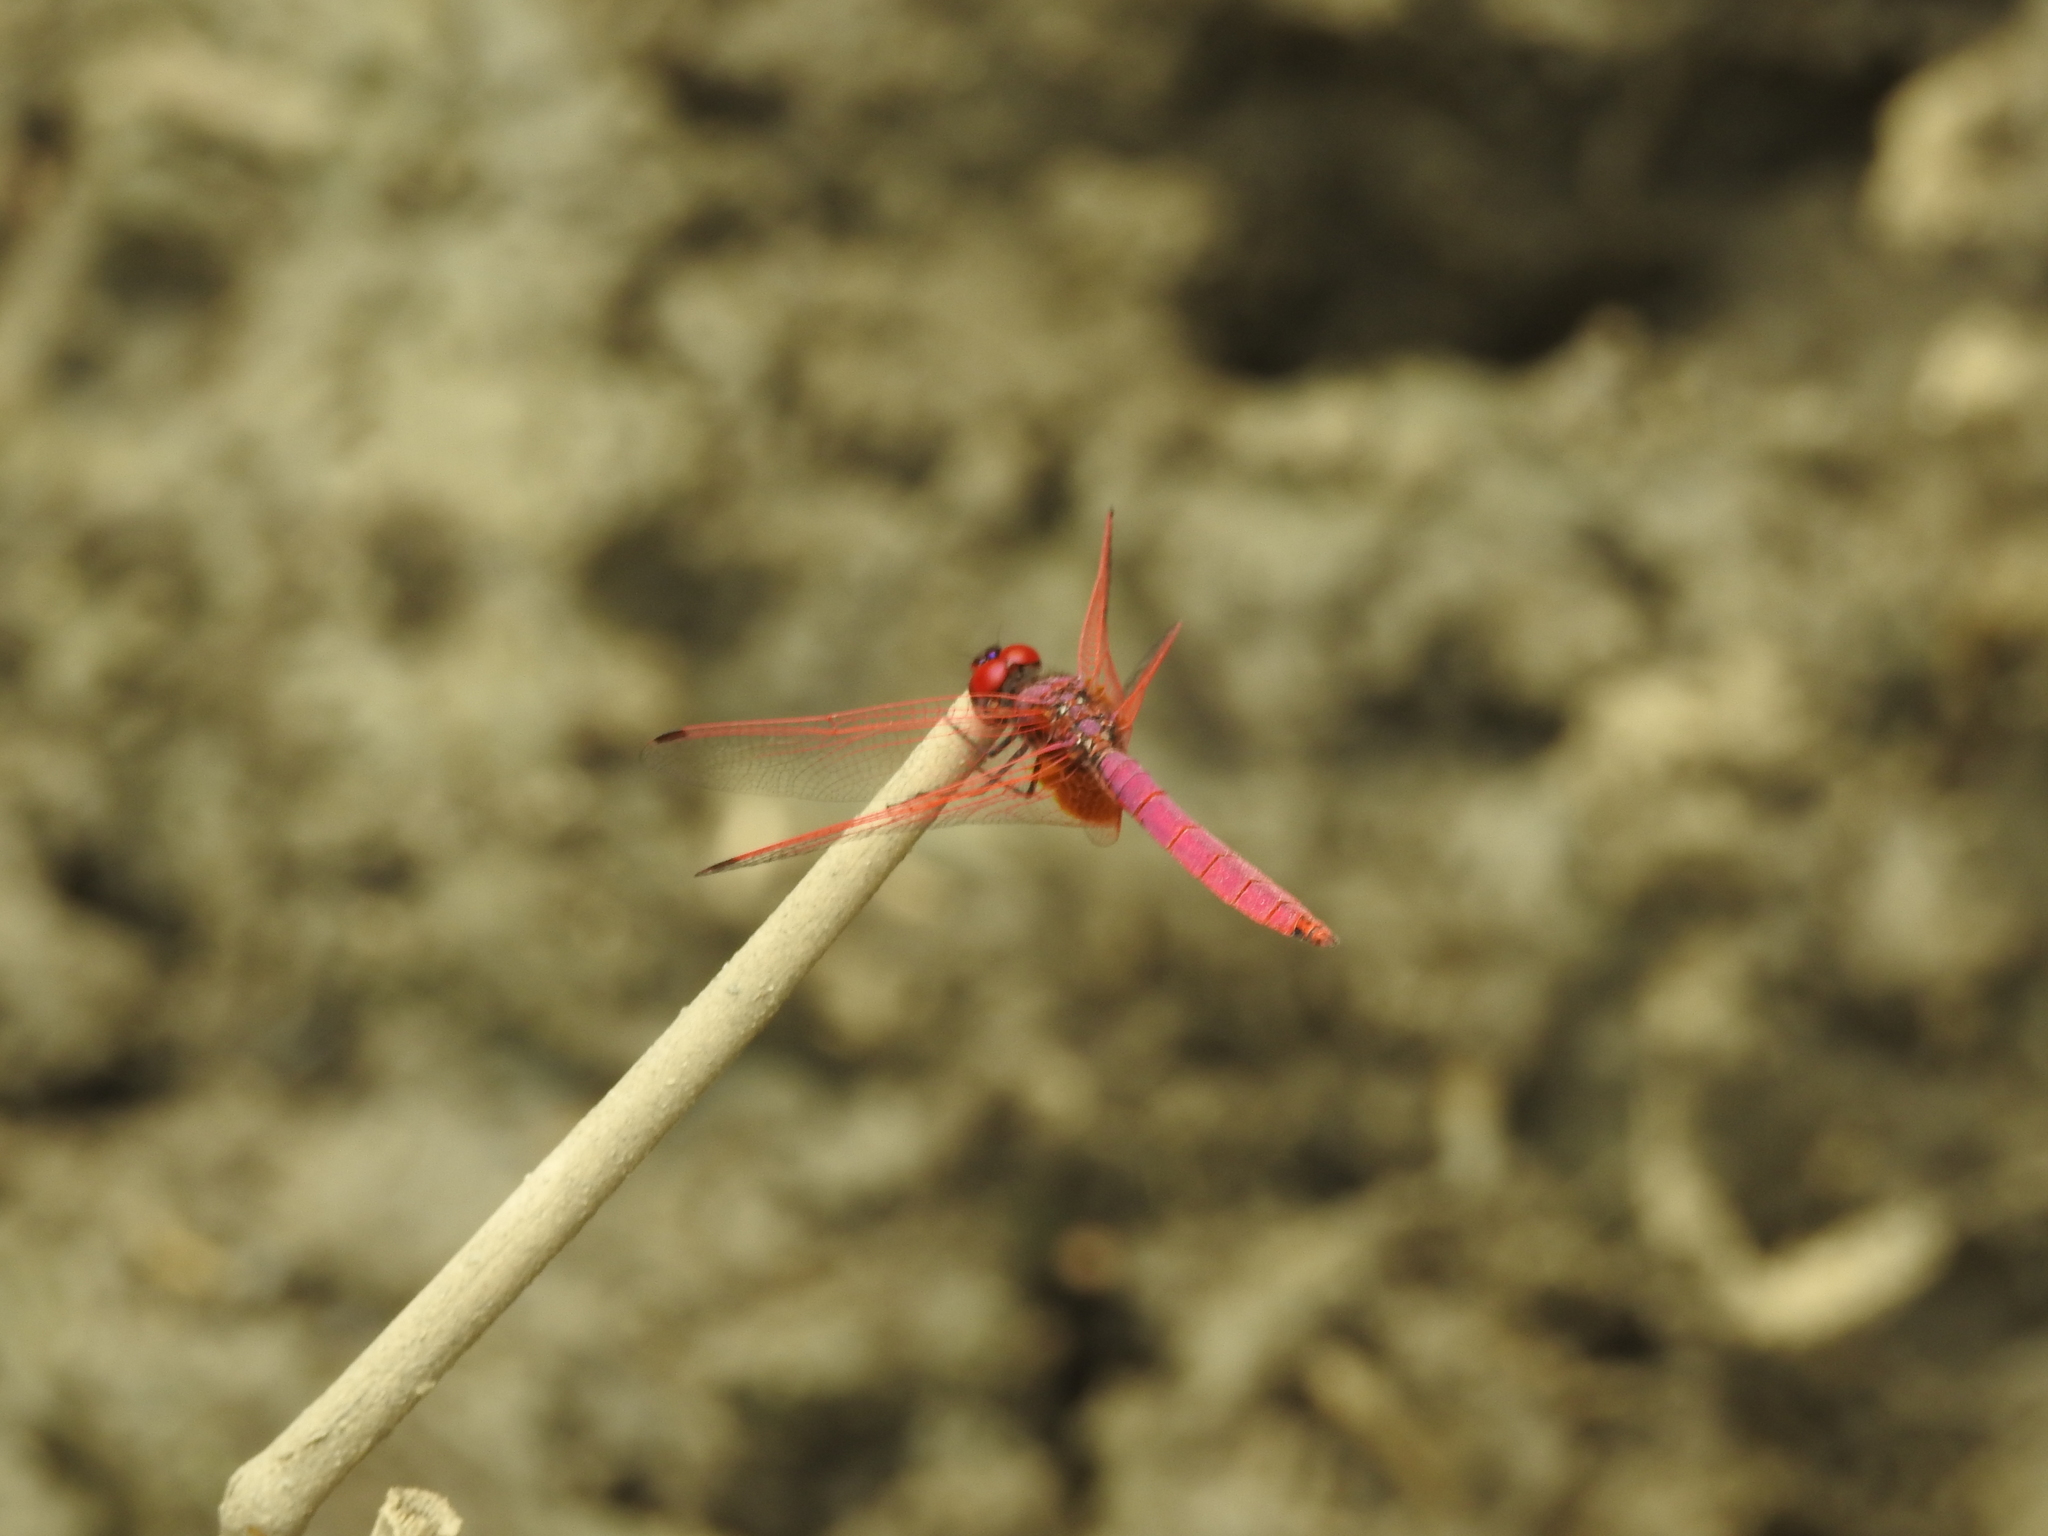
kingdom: Animalia
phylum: Arthropoda
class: Insecta
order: Odonata
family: Libellulidae
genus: Trithemis
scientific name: Trithemis aurora
